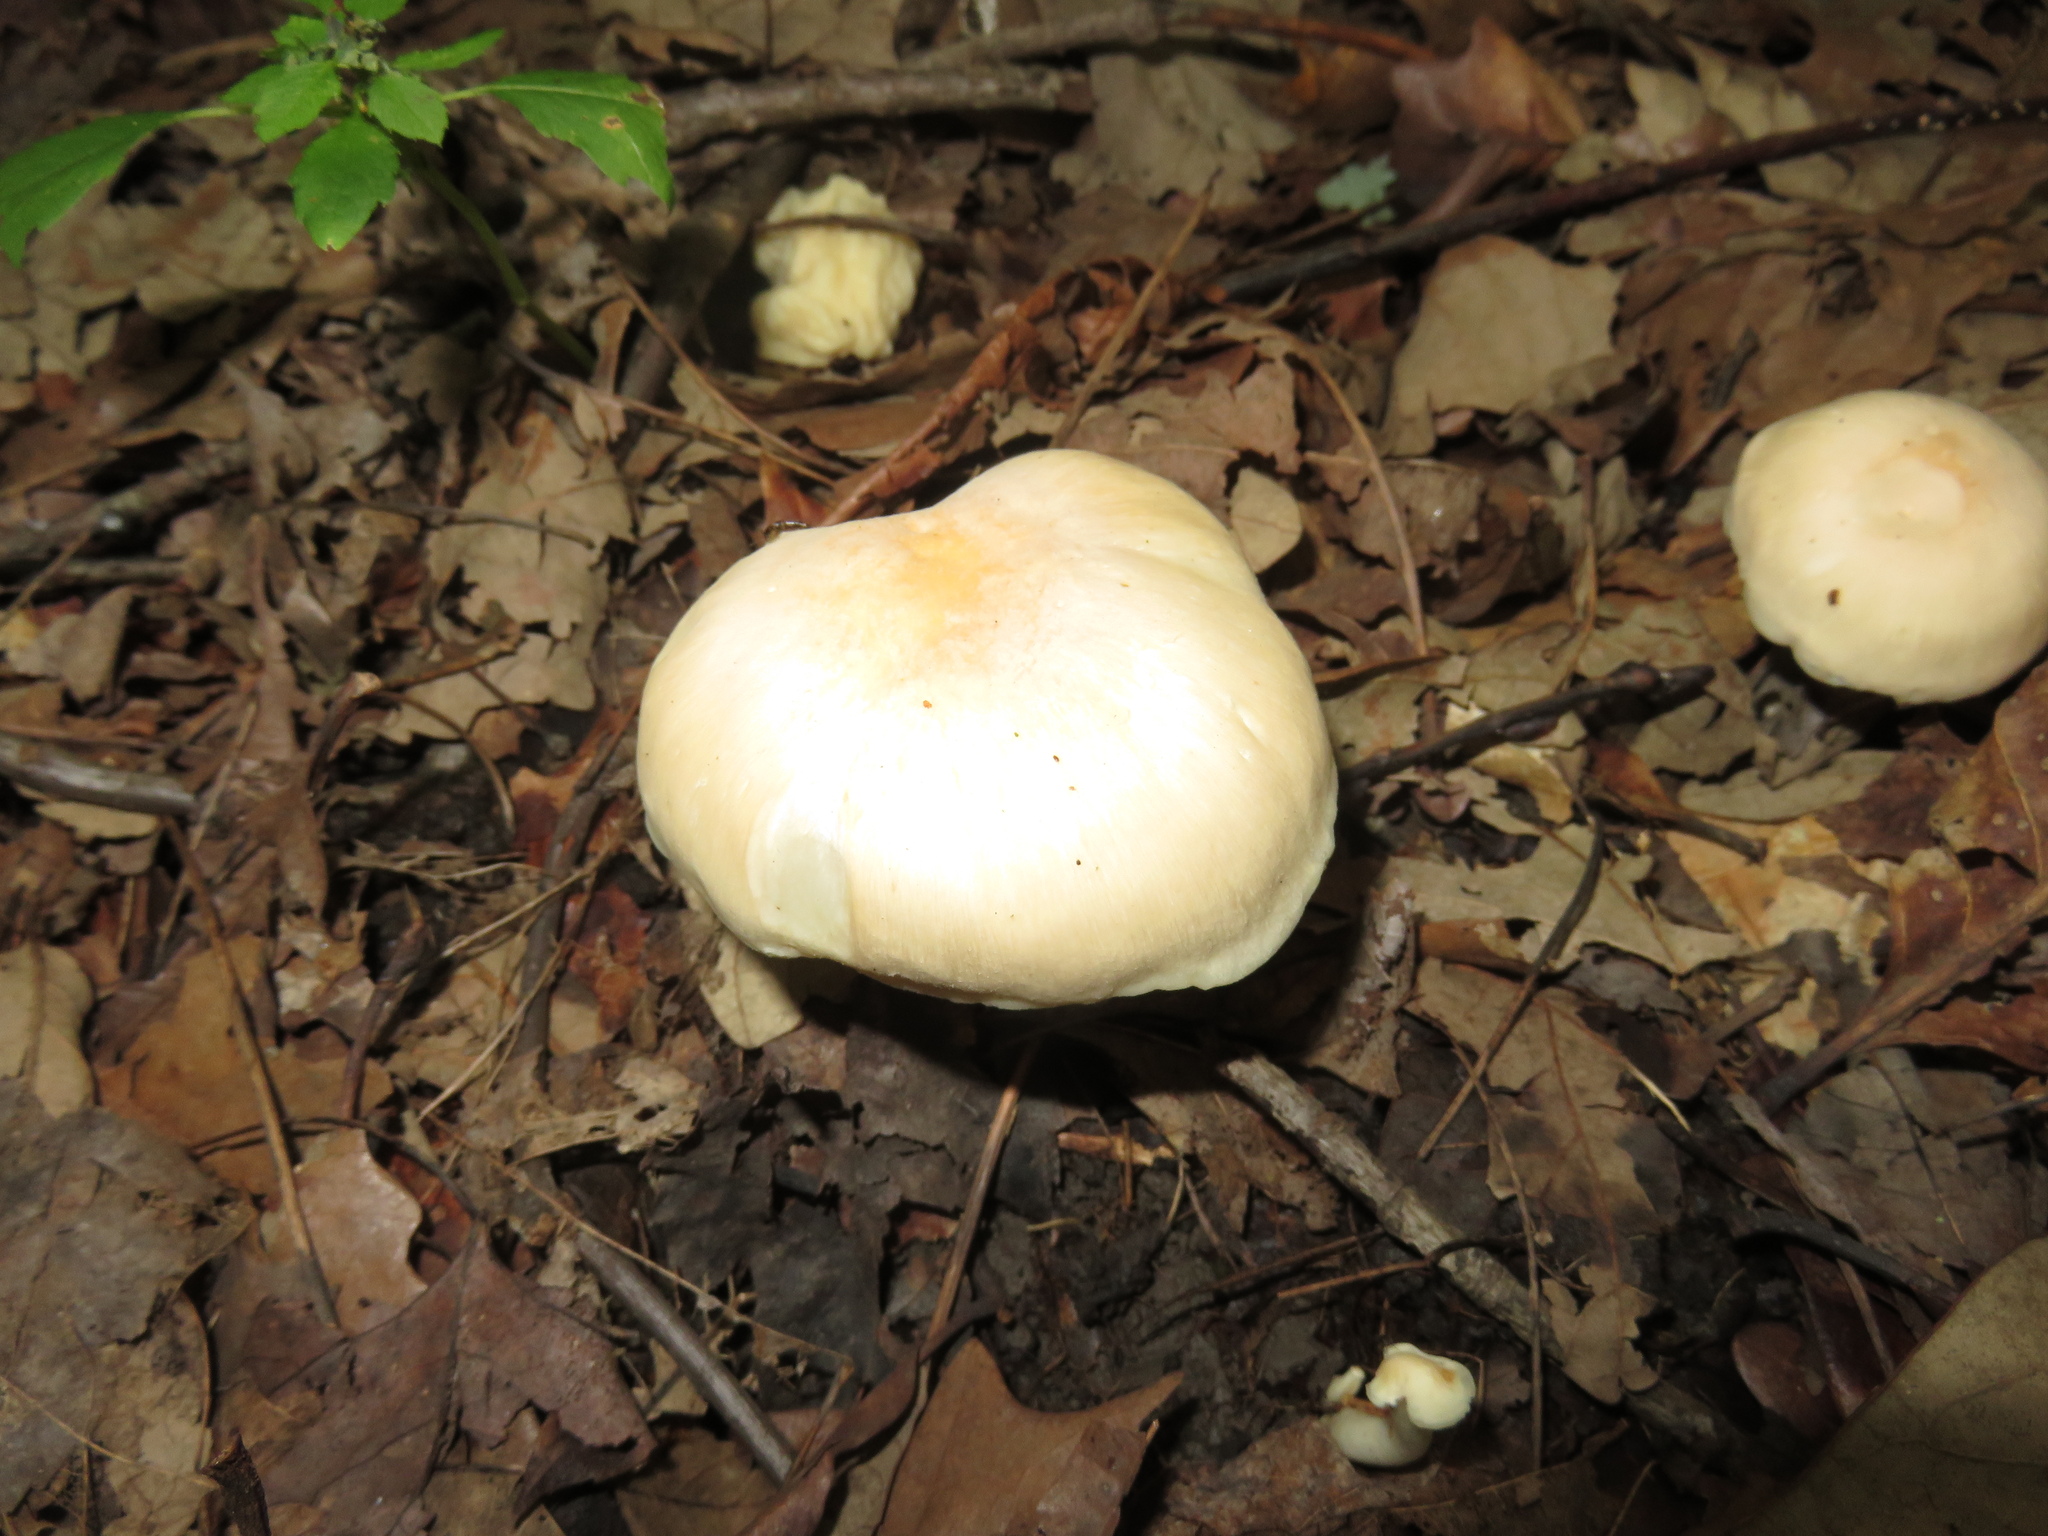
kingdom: Fungi
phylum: Basidiomycota
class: Agaricomycetes
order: Agaricales
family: Hygrophoraceae
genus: Hygrocybe
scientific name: Hygrocybe angustifolia
